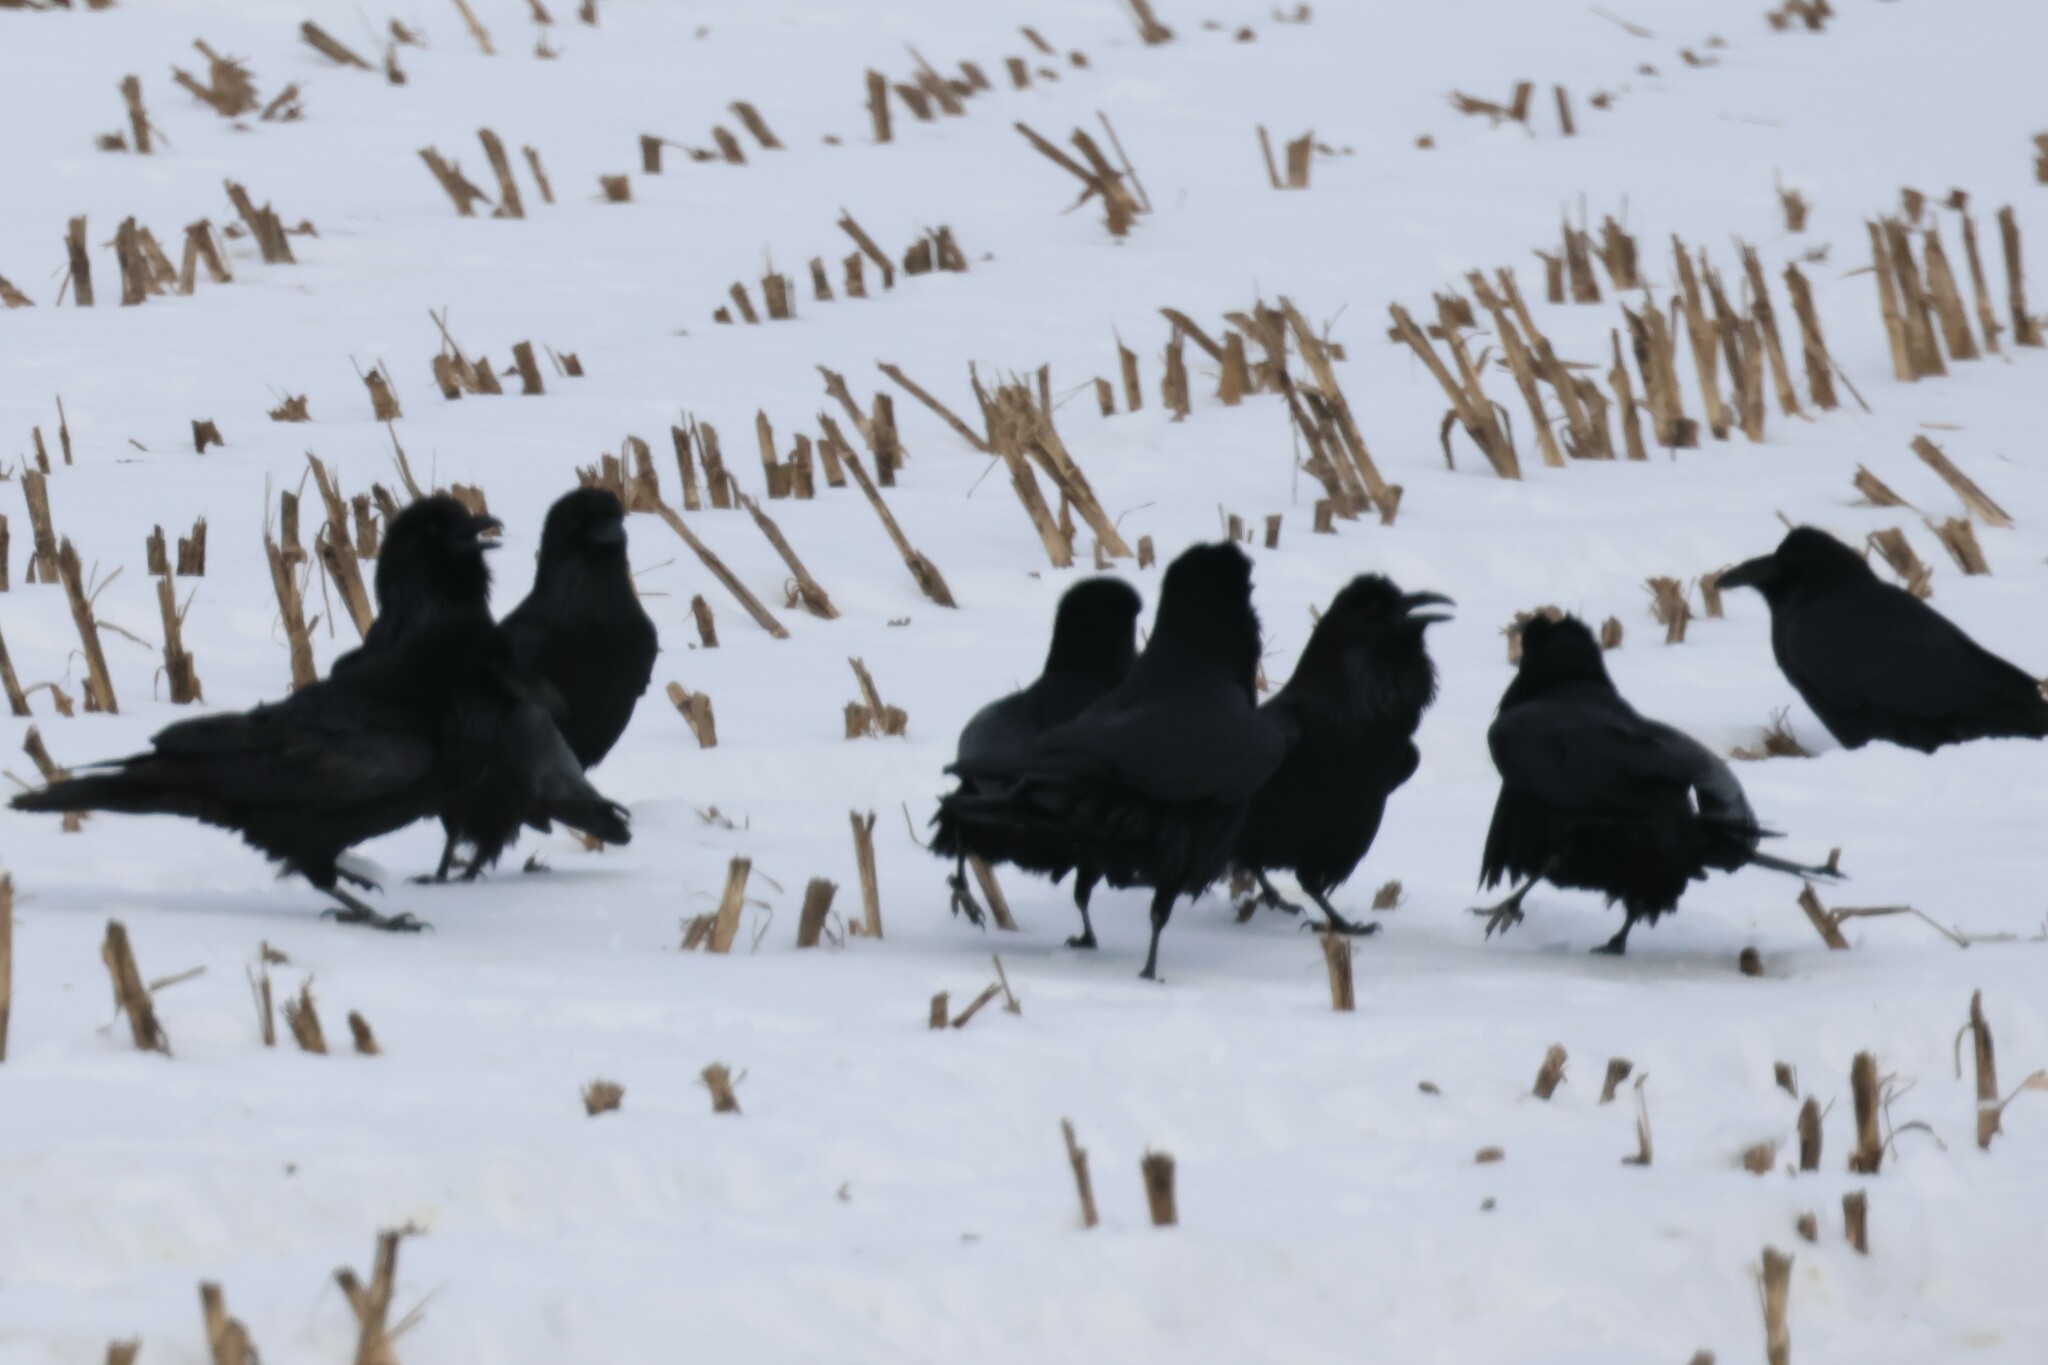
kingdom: Animalia
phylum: Chordata
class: Aves
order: Passeriformes
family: Corvidae
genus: Corvus
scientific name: Corvus corax
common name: Common raven
